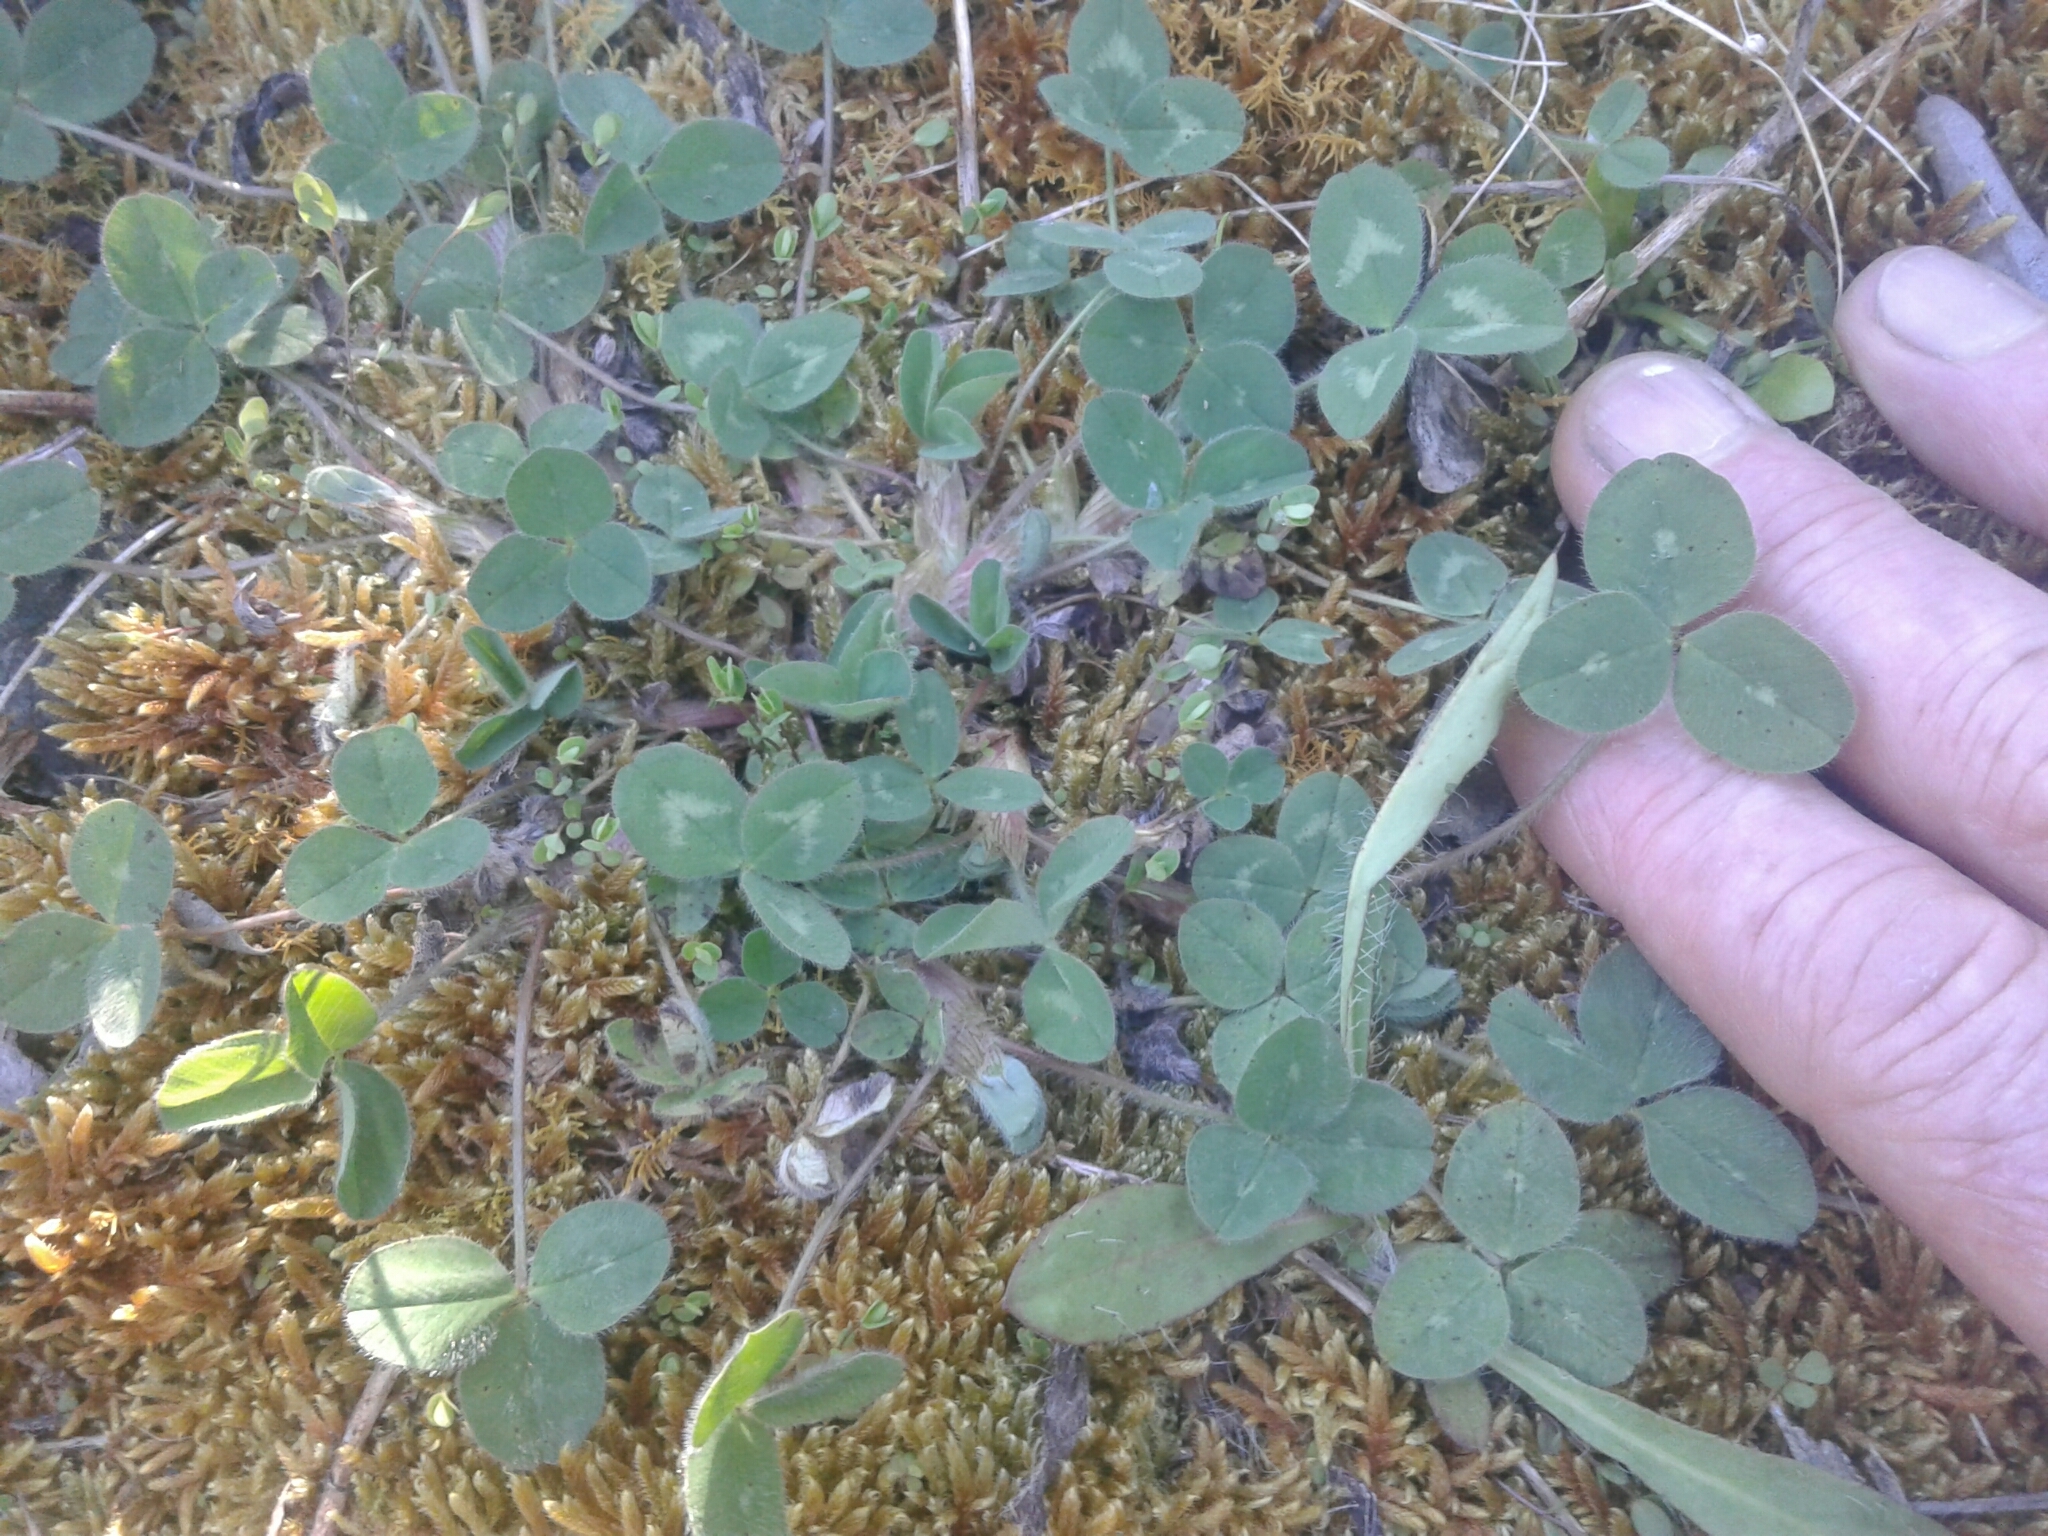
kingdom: Plantae
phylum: Tracheophyta
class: Magnoliopsida
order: Fabales
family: Fabaceae
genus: Trifolium
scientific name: Trifolium pratense
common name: Red clover
